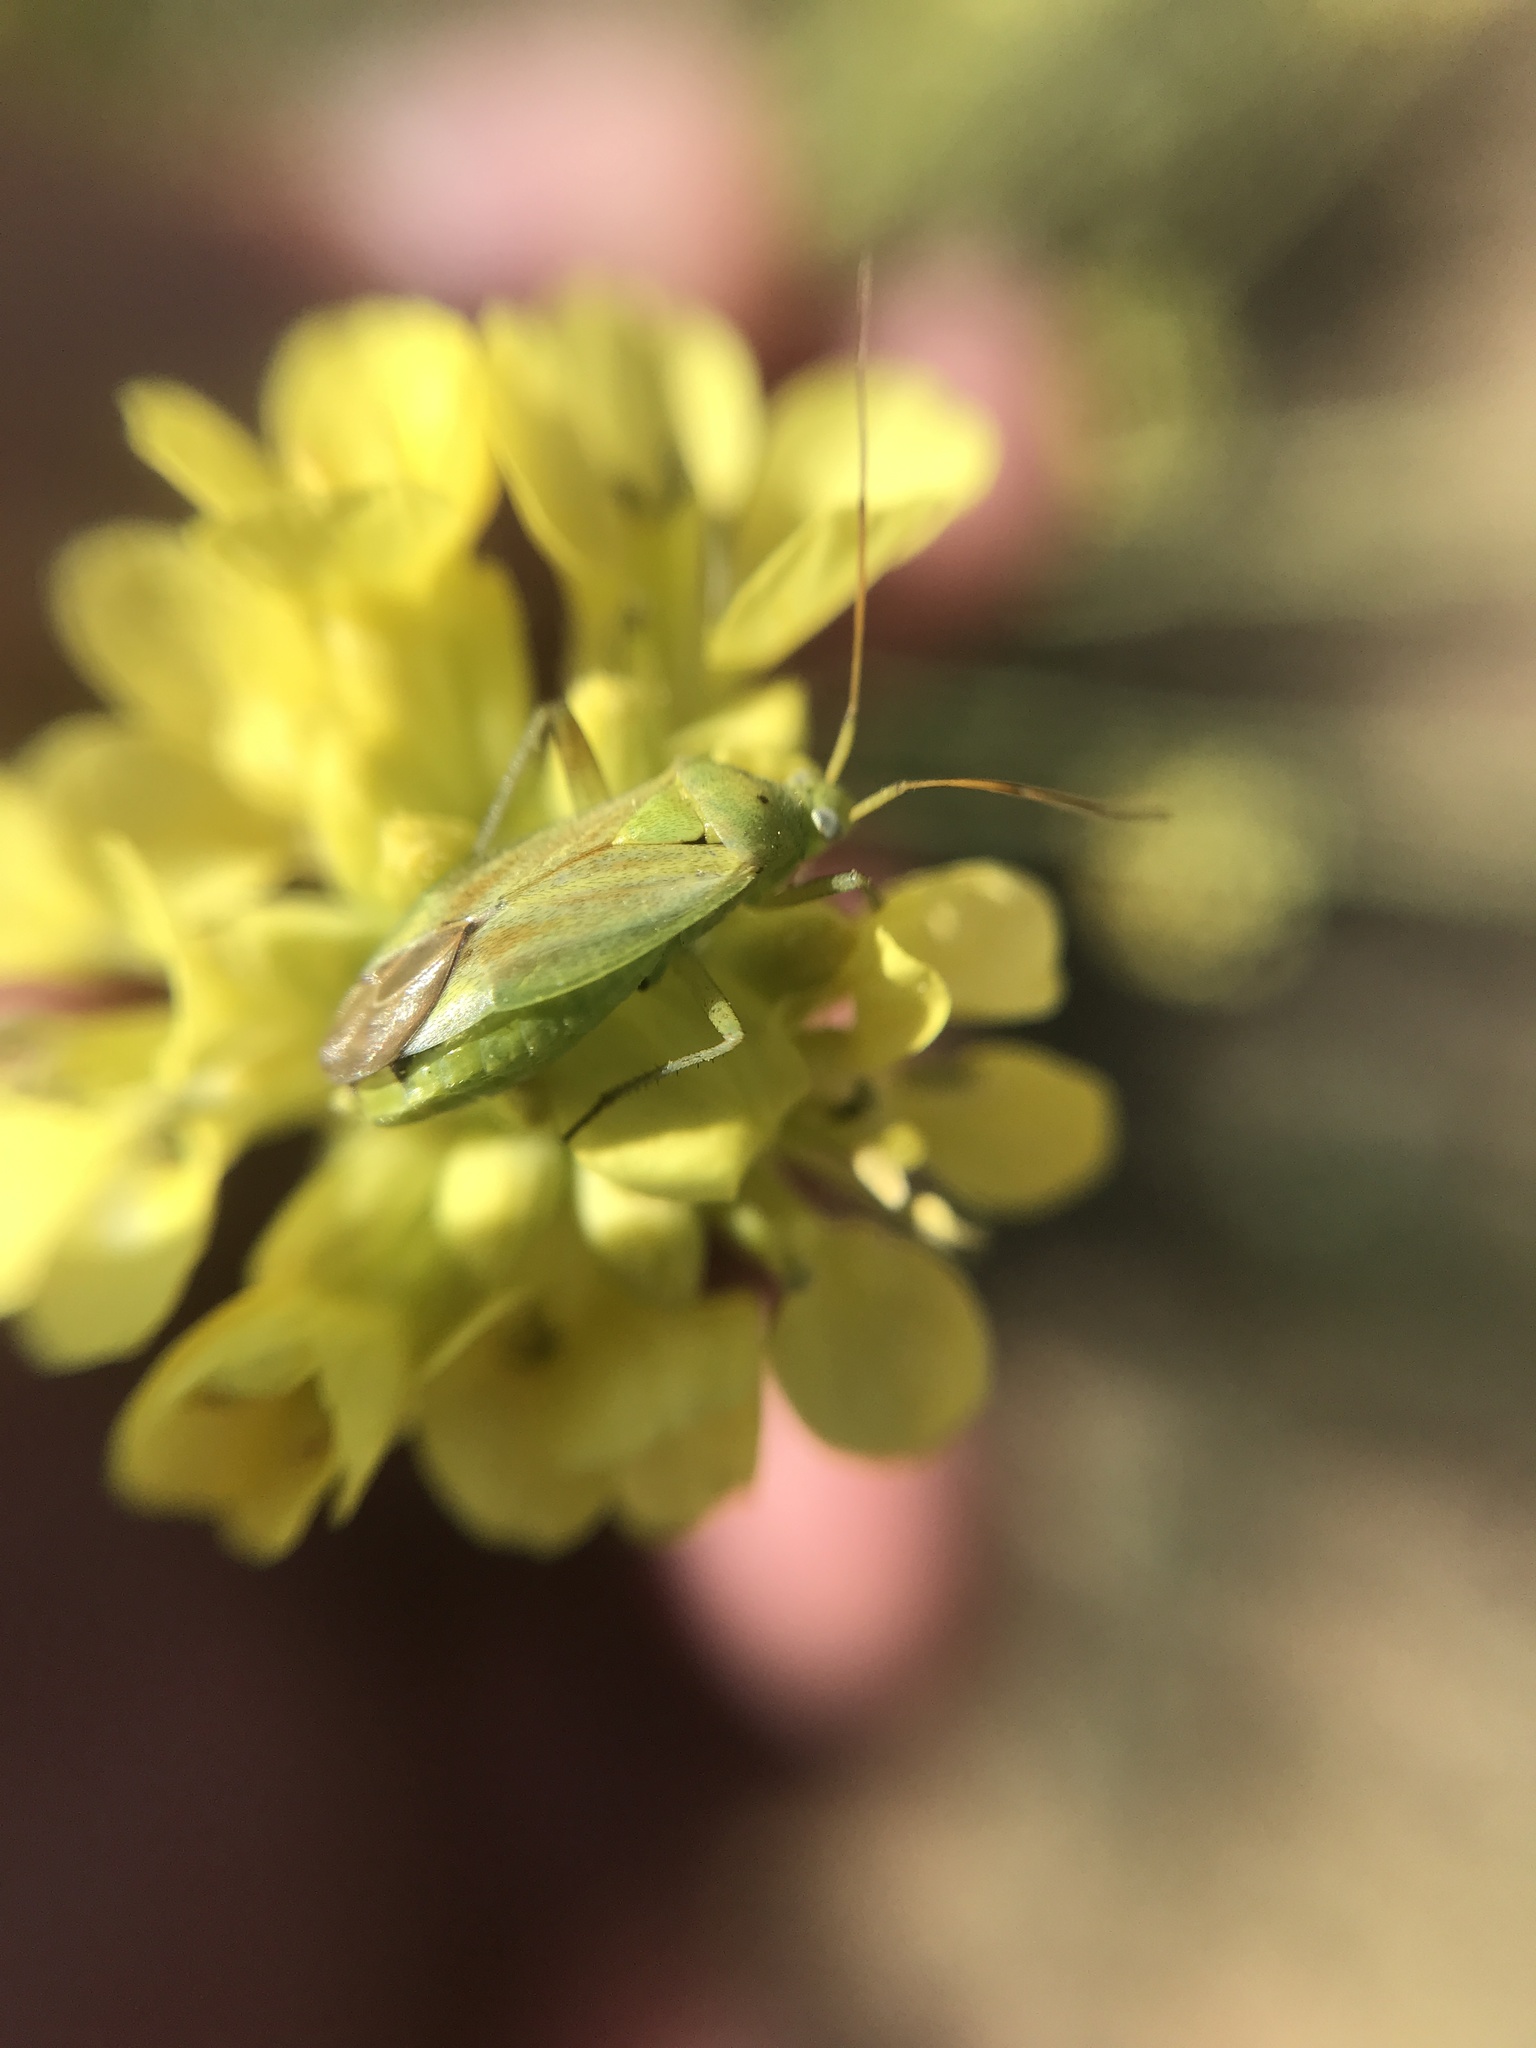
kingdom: Animalia
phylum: Arthropoda
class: Insecta
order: Hemiptera
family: Miridae
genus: Closterotomus
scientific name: Closterotomus norvegicus
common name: Plant bug
